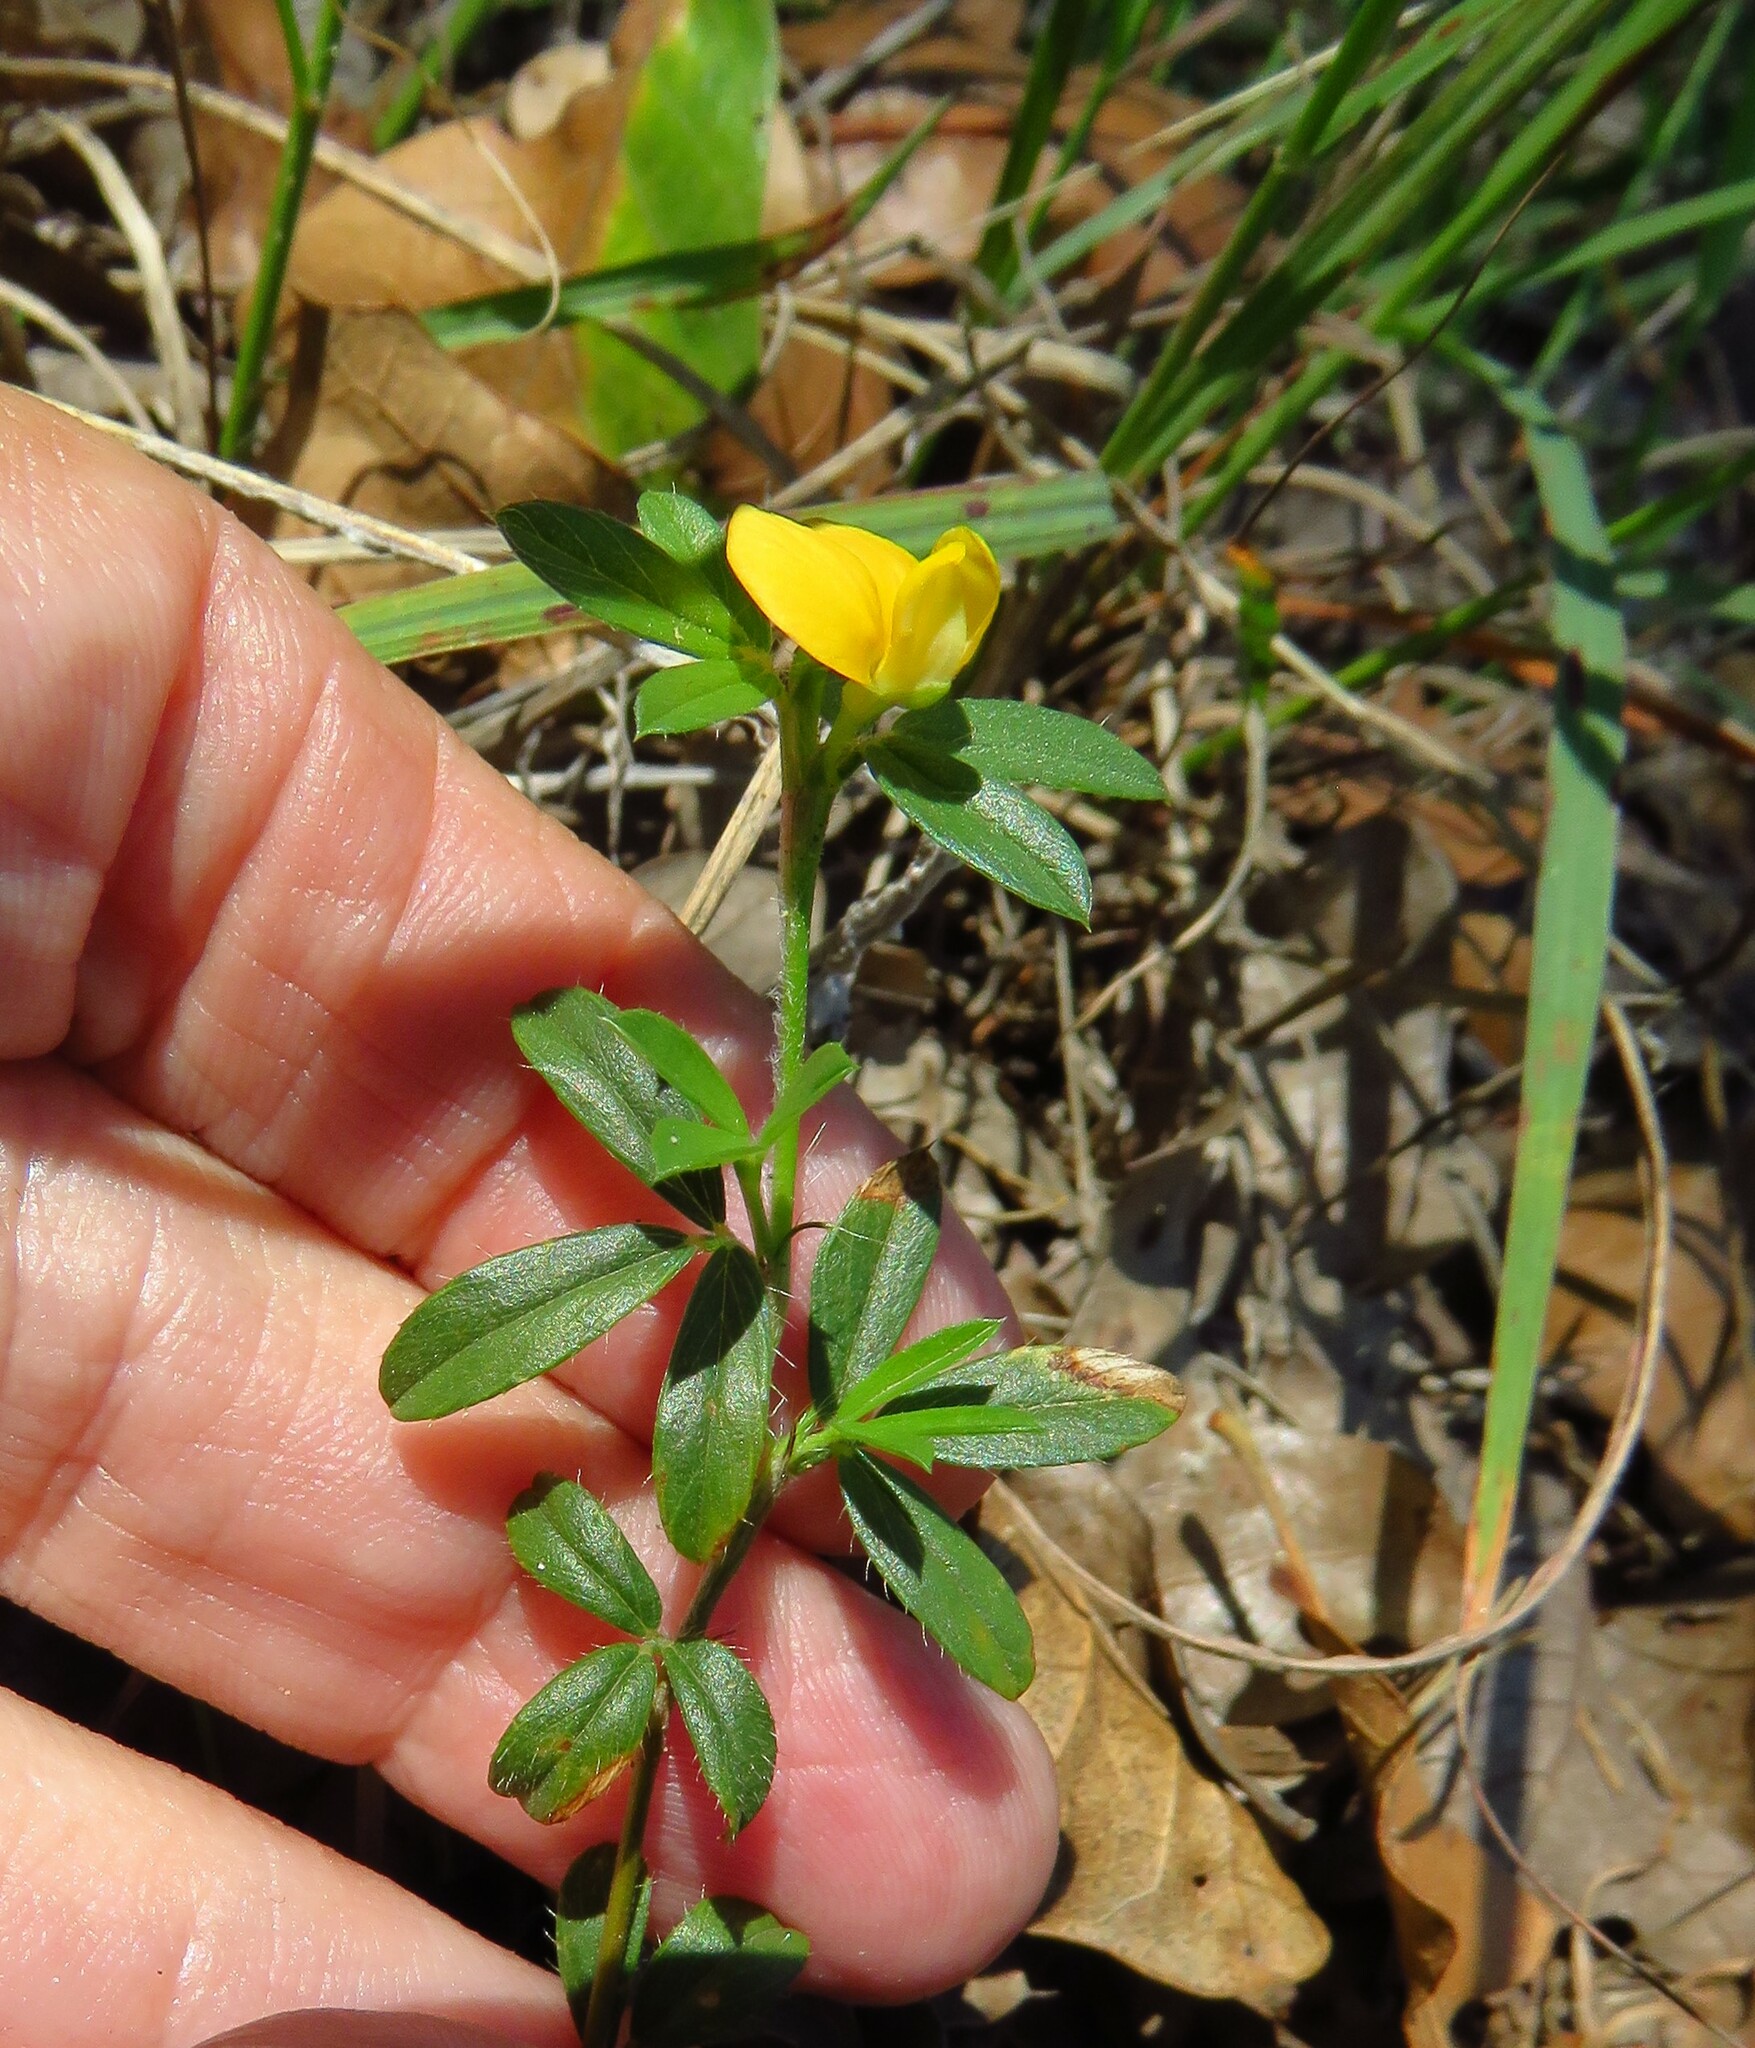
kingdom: Plantae
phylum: Tracheophyta
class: Magnoliopsida
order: Fabales
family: Fabaceae
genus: Stylosanthes
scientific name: Stylosanthes biflora
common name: Two-flower pencil-flower
